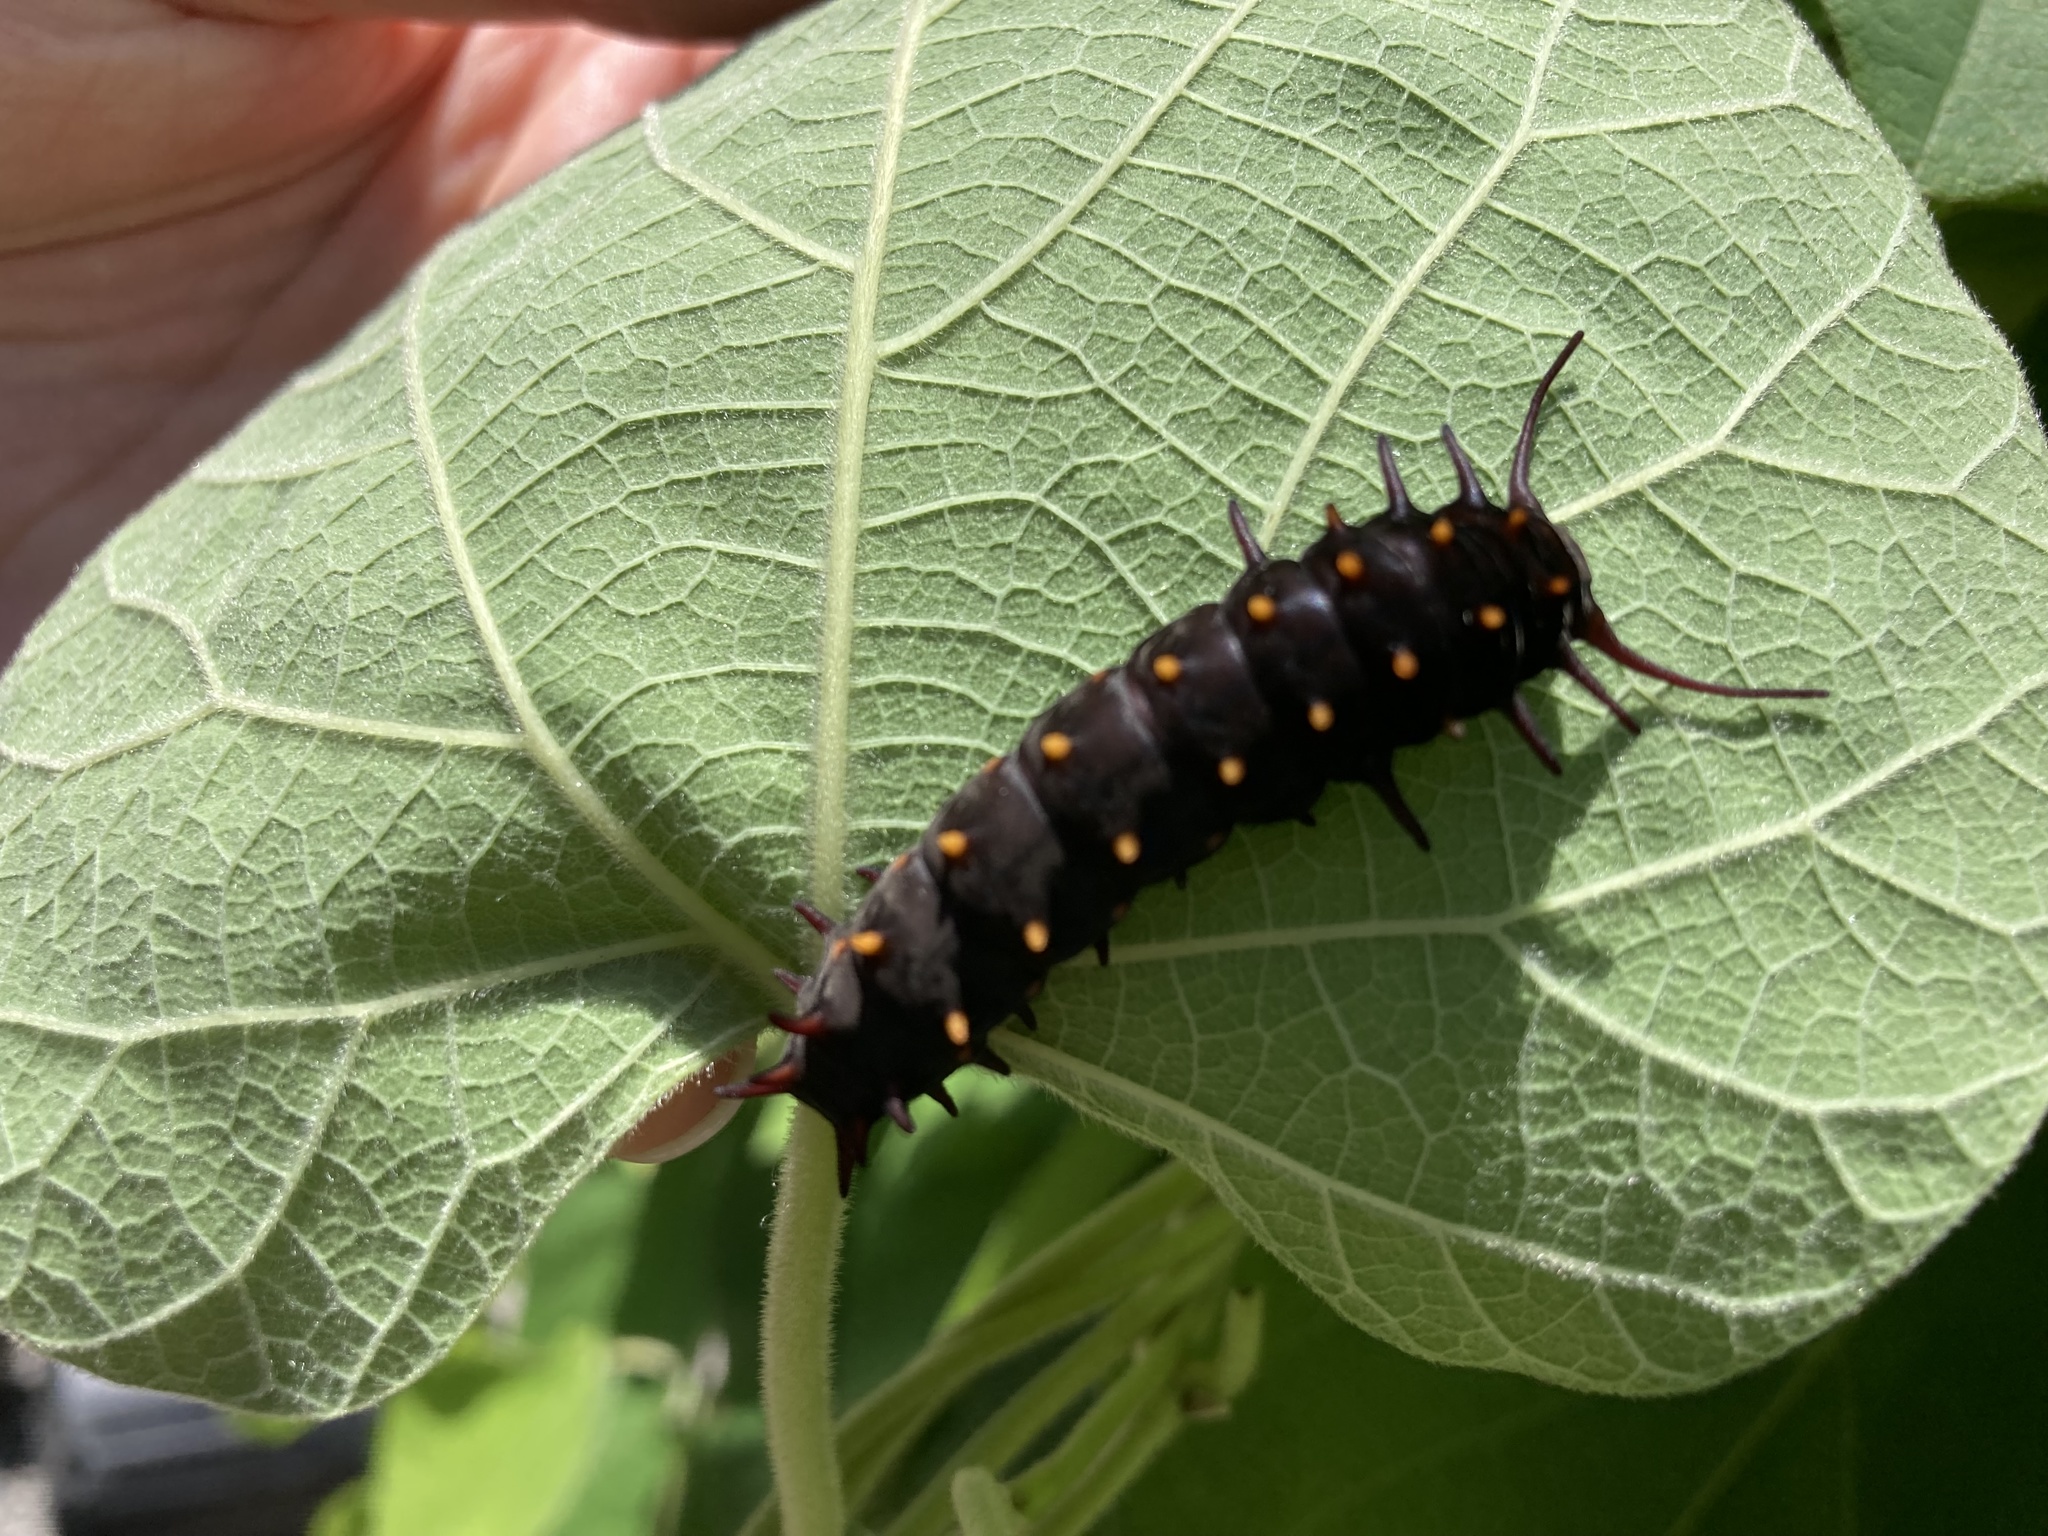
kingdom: Animalia
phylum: Arthropoda
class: Insecta
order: Lepidoptera
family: Papilionidae
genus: Battus
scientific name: Battus philenor
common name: Pipevine swallowtail
